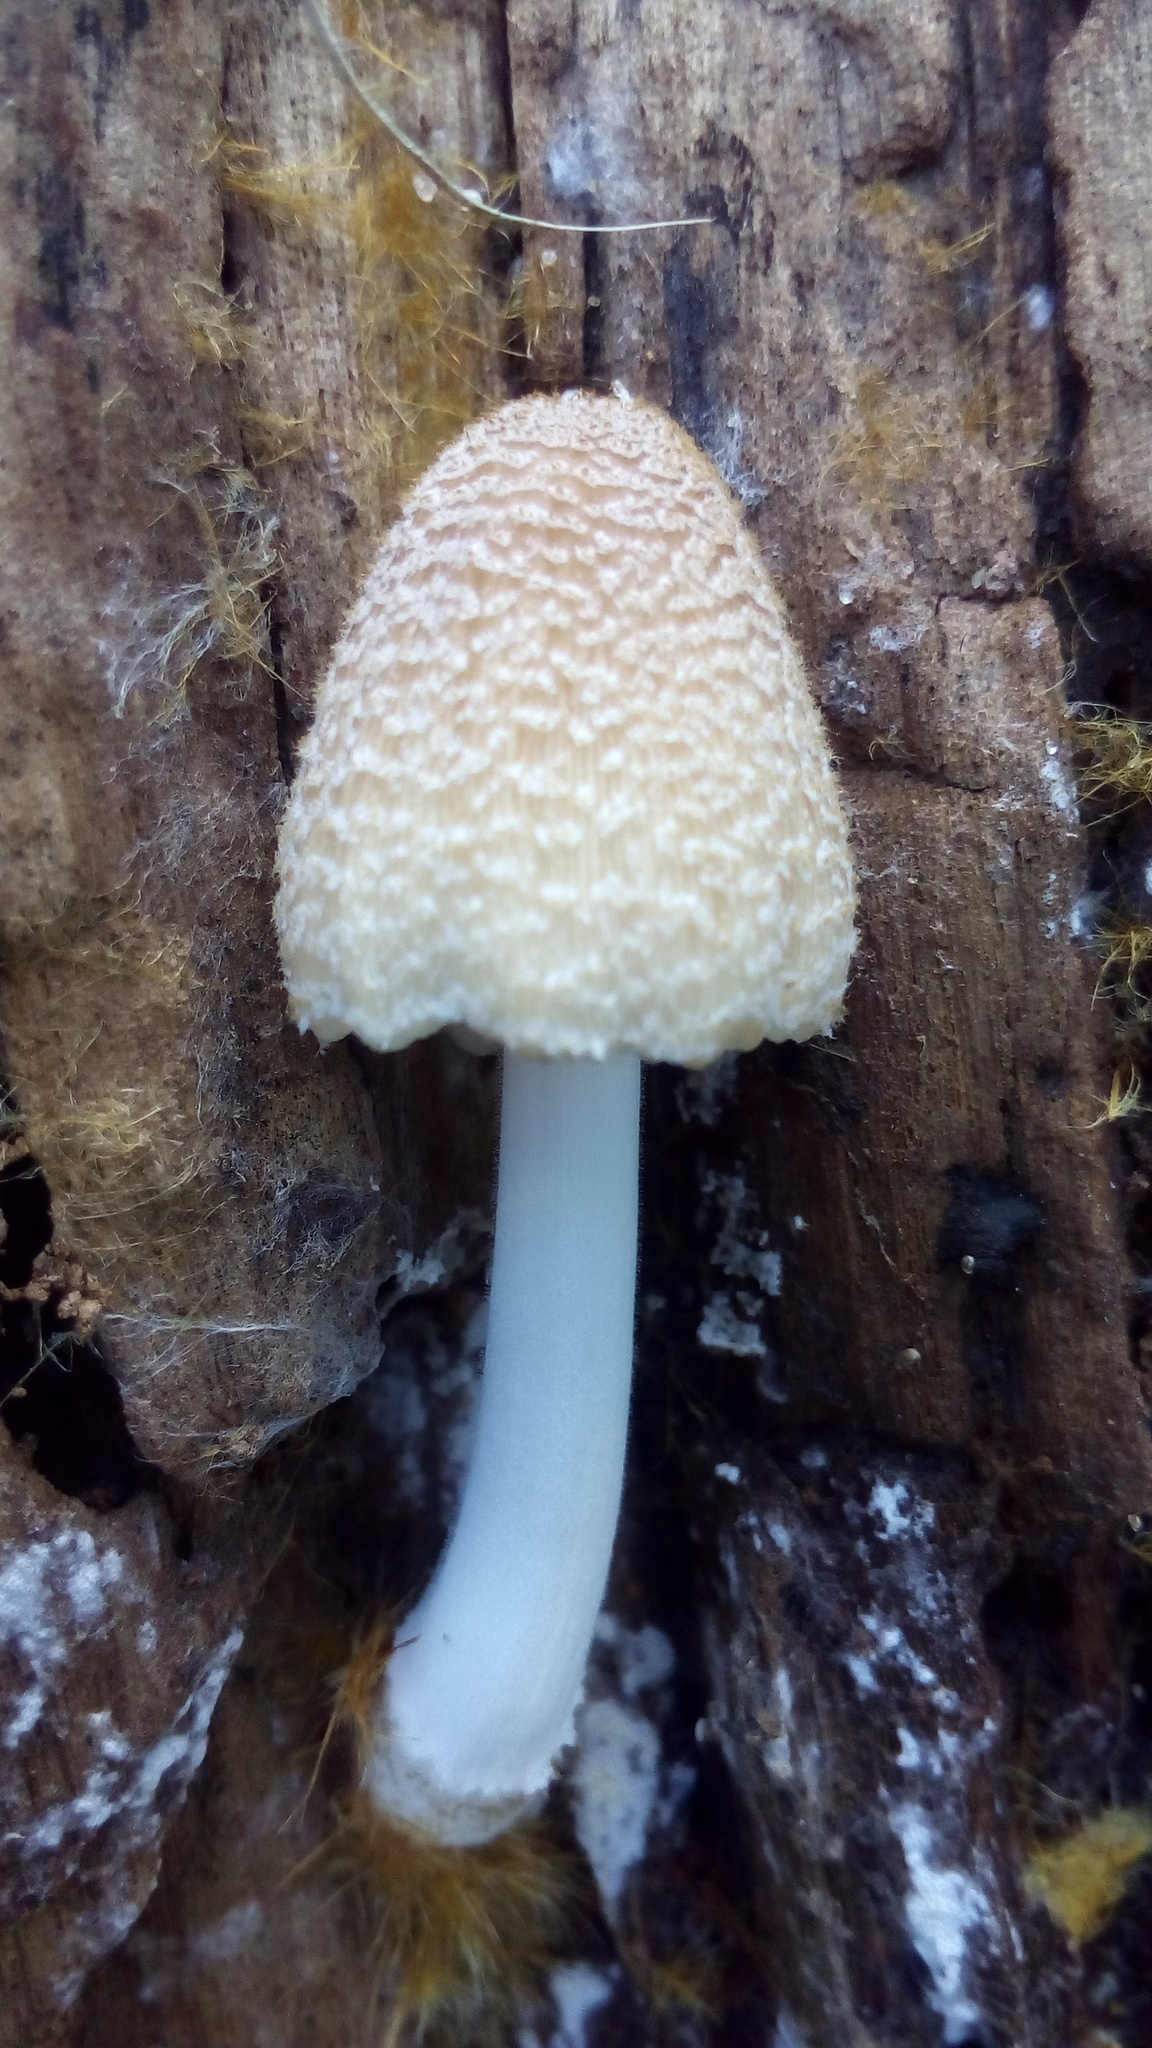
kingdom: Fungi
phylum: Basidiomycota
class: Agaricomycetes
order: Agaricales
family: Psathyrellaceae
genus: Coprinellus
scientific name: Coprinellus domesticus
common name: Firerug inkcap
